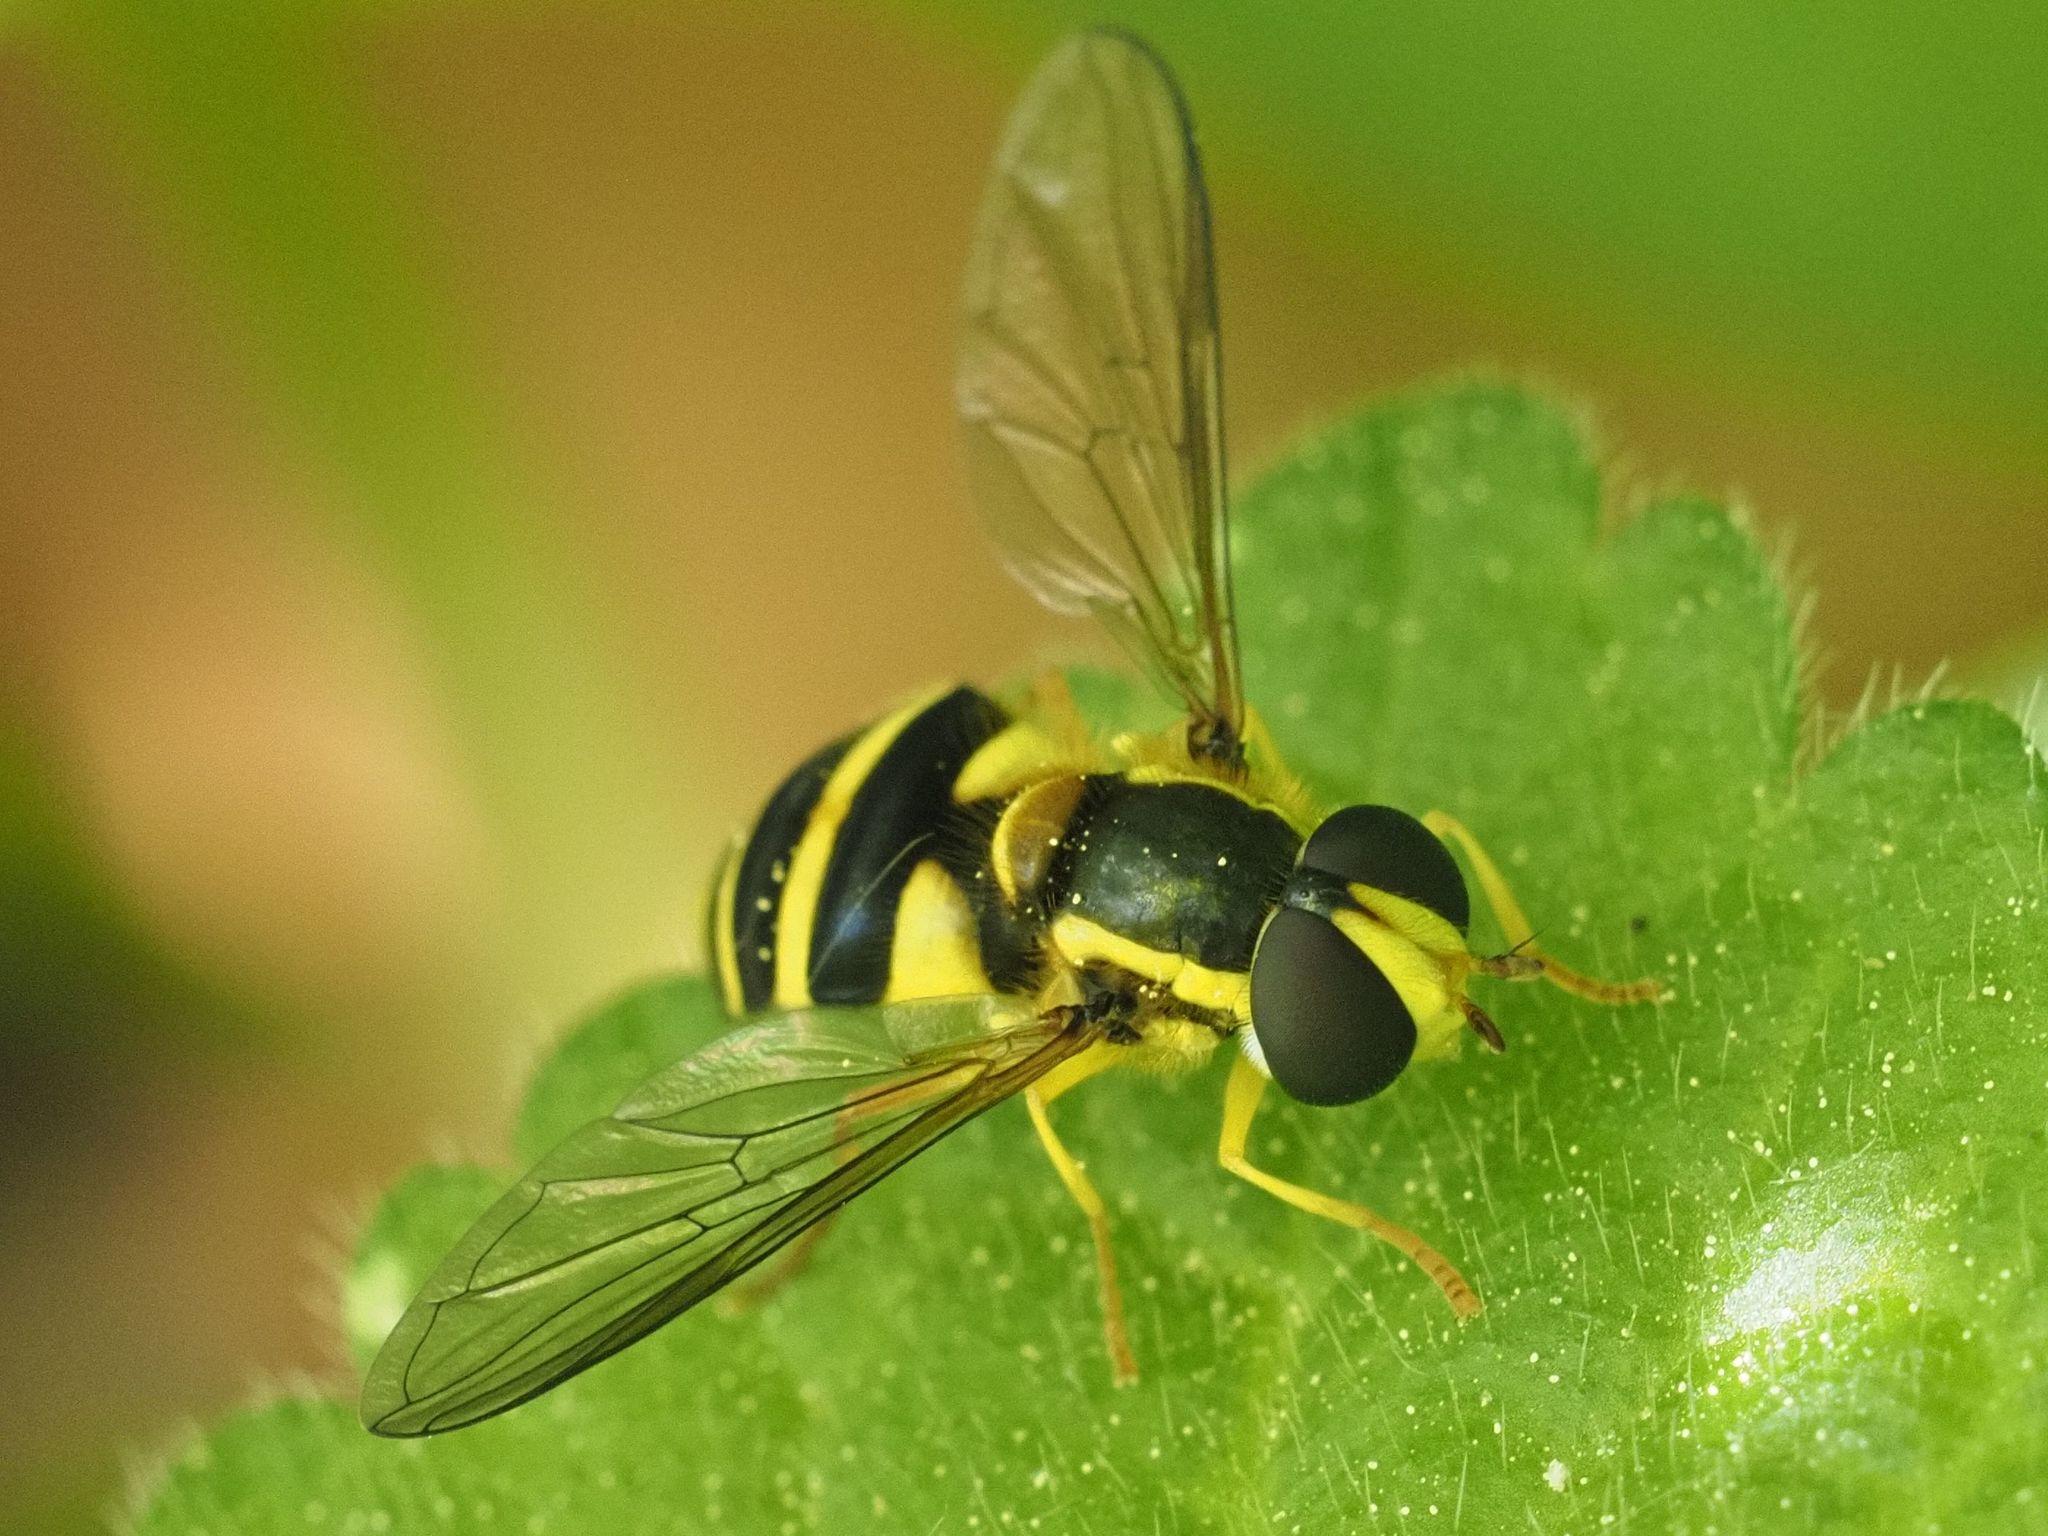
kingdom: Animalia
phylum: Arthropoda
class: Insecta
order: Diptera
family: Syrphidae
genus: Philhelius
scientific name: Philhelius laetus
